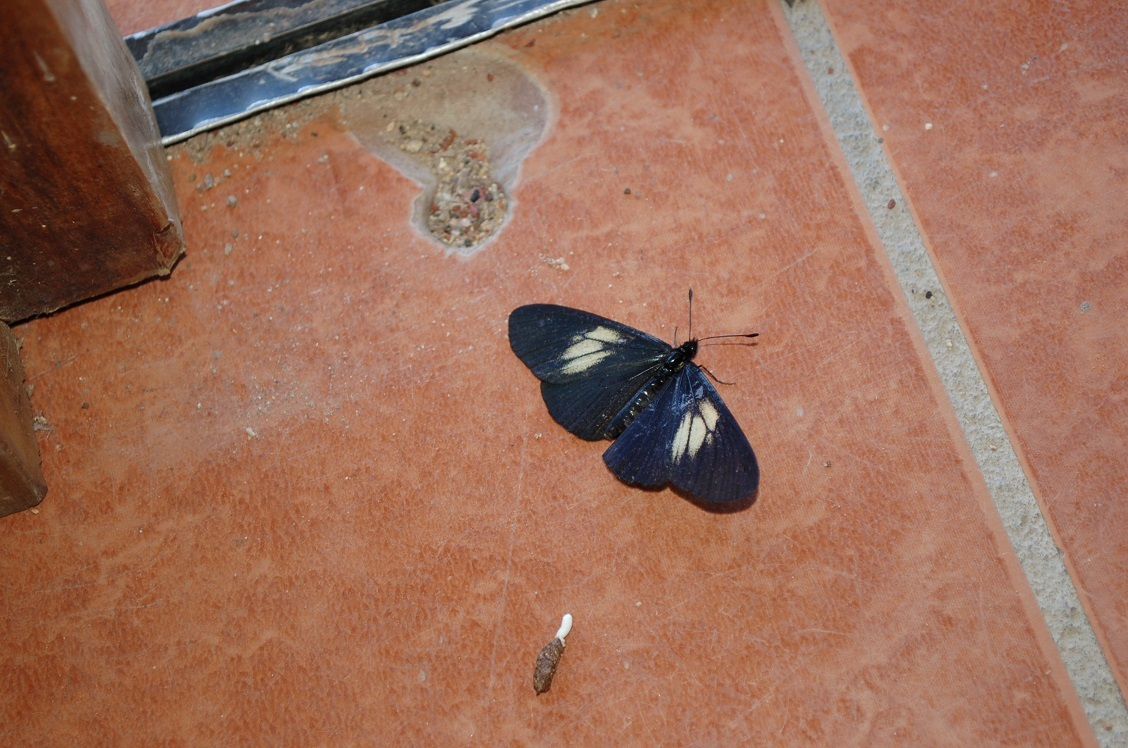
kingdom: Animalia
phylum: Arthropoda
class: Insecta
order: Lepidoptera
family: Nymphalidae
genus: Acraea
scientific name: Acraea Altinote ozomene
